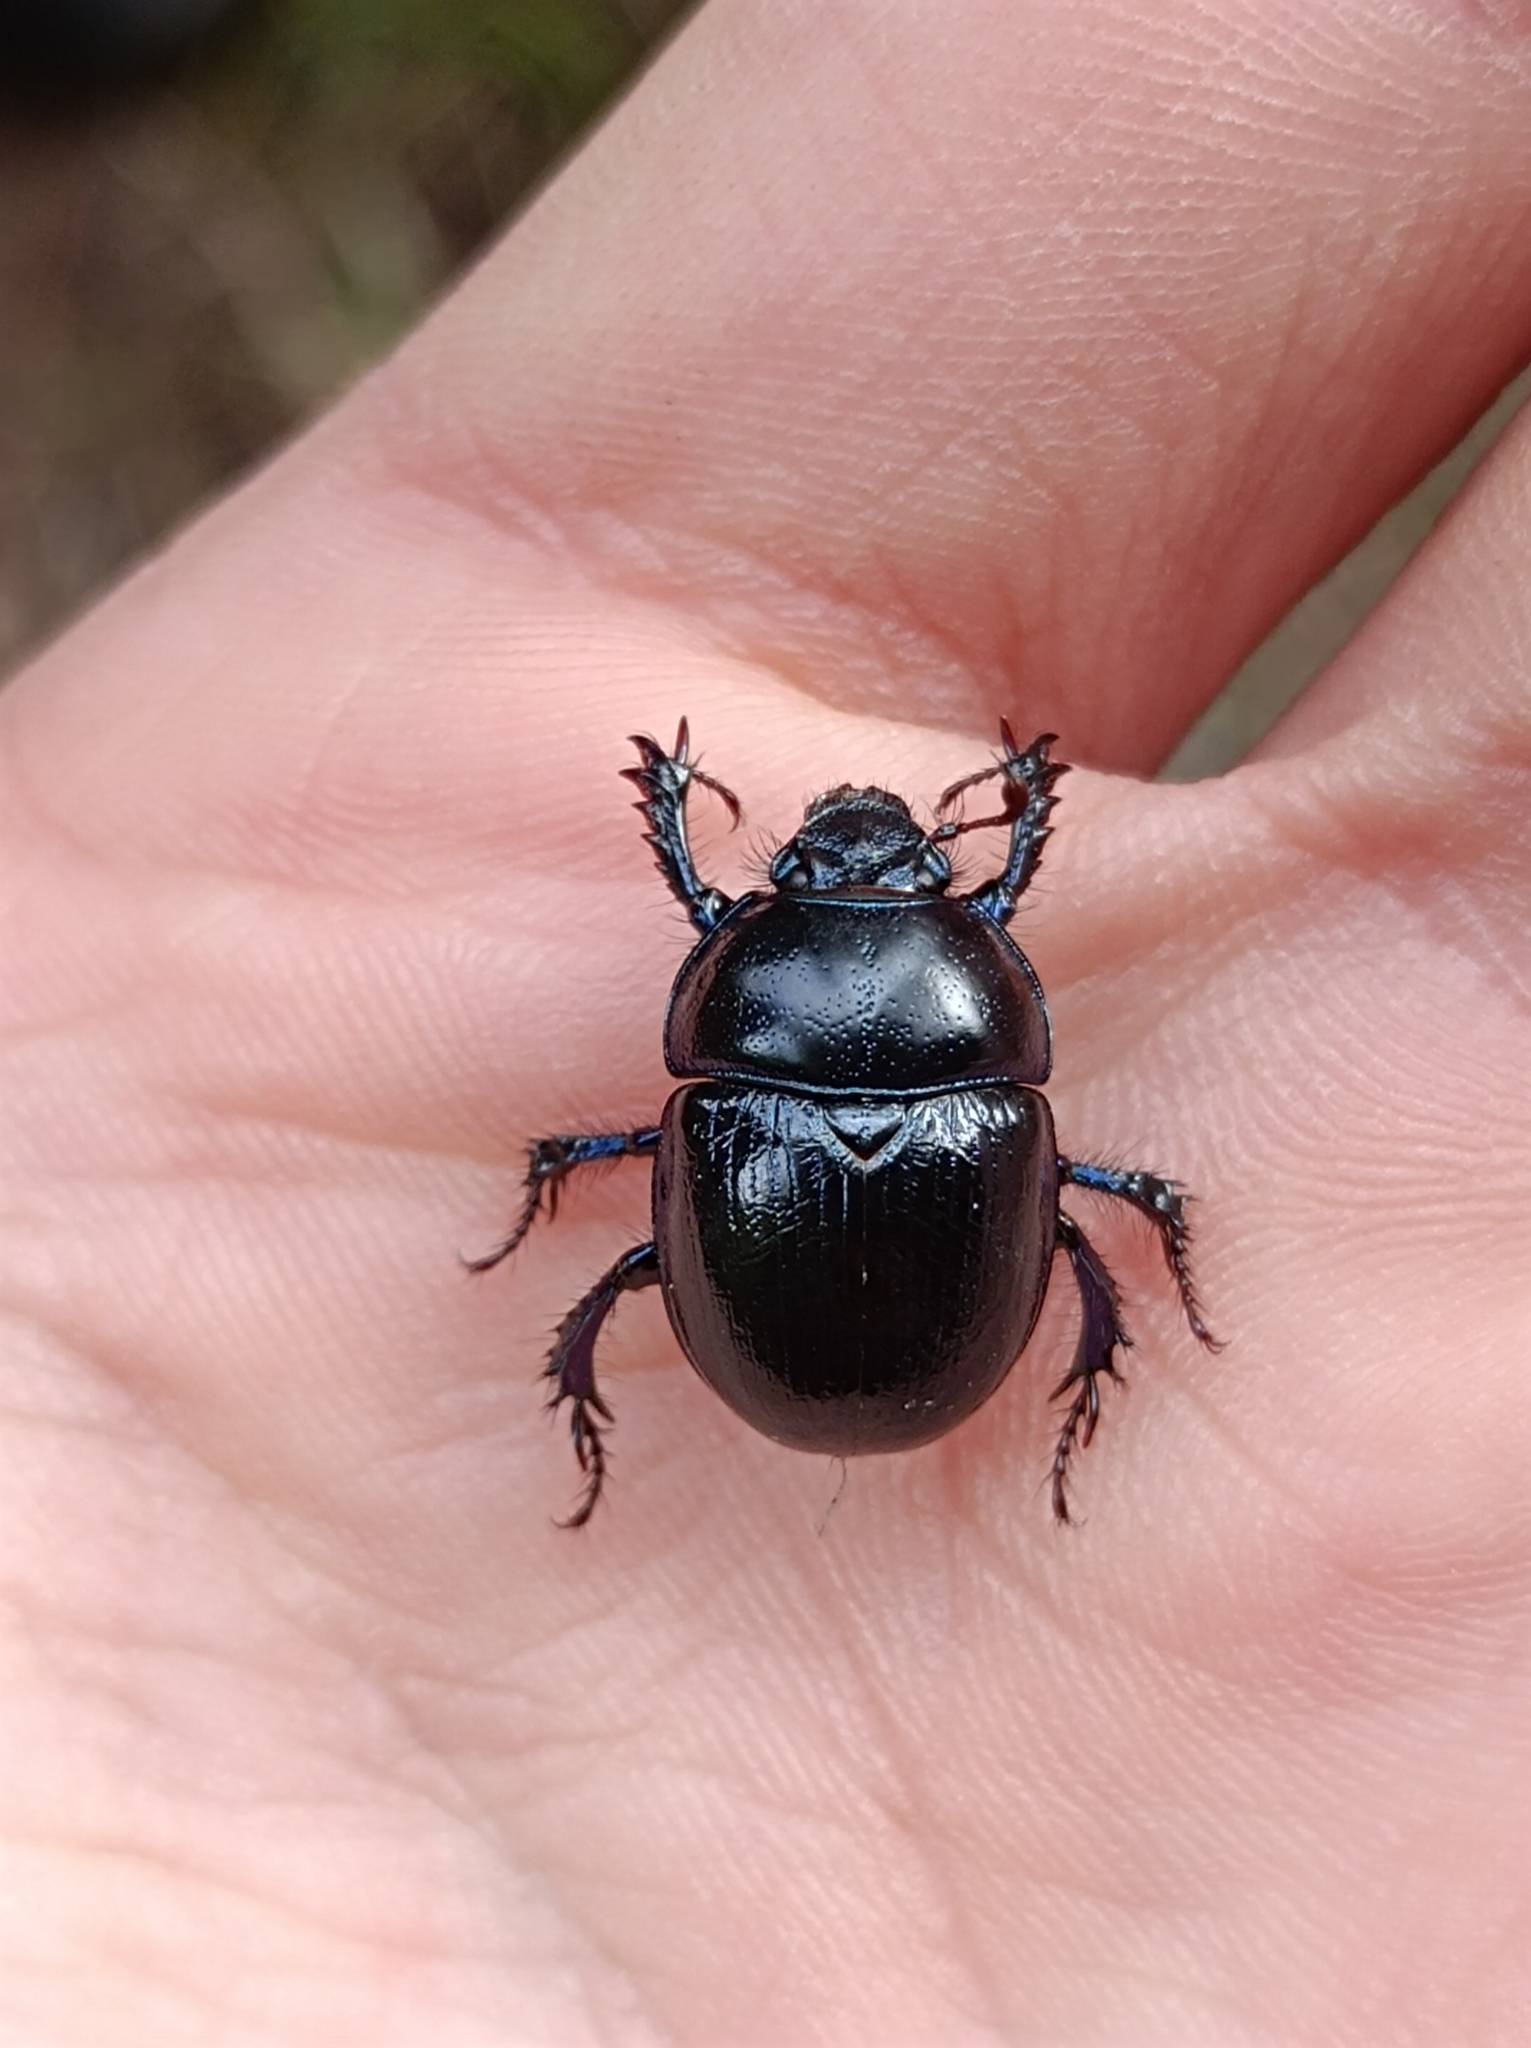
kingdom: Animalia
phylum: Arthropoda
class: Insecta
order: Coleoptera
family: Geotrupidae
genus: Anoplotrupes
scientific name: Anoplotrupes stercorosus
